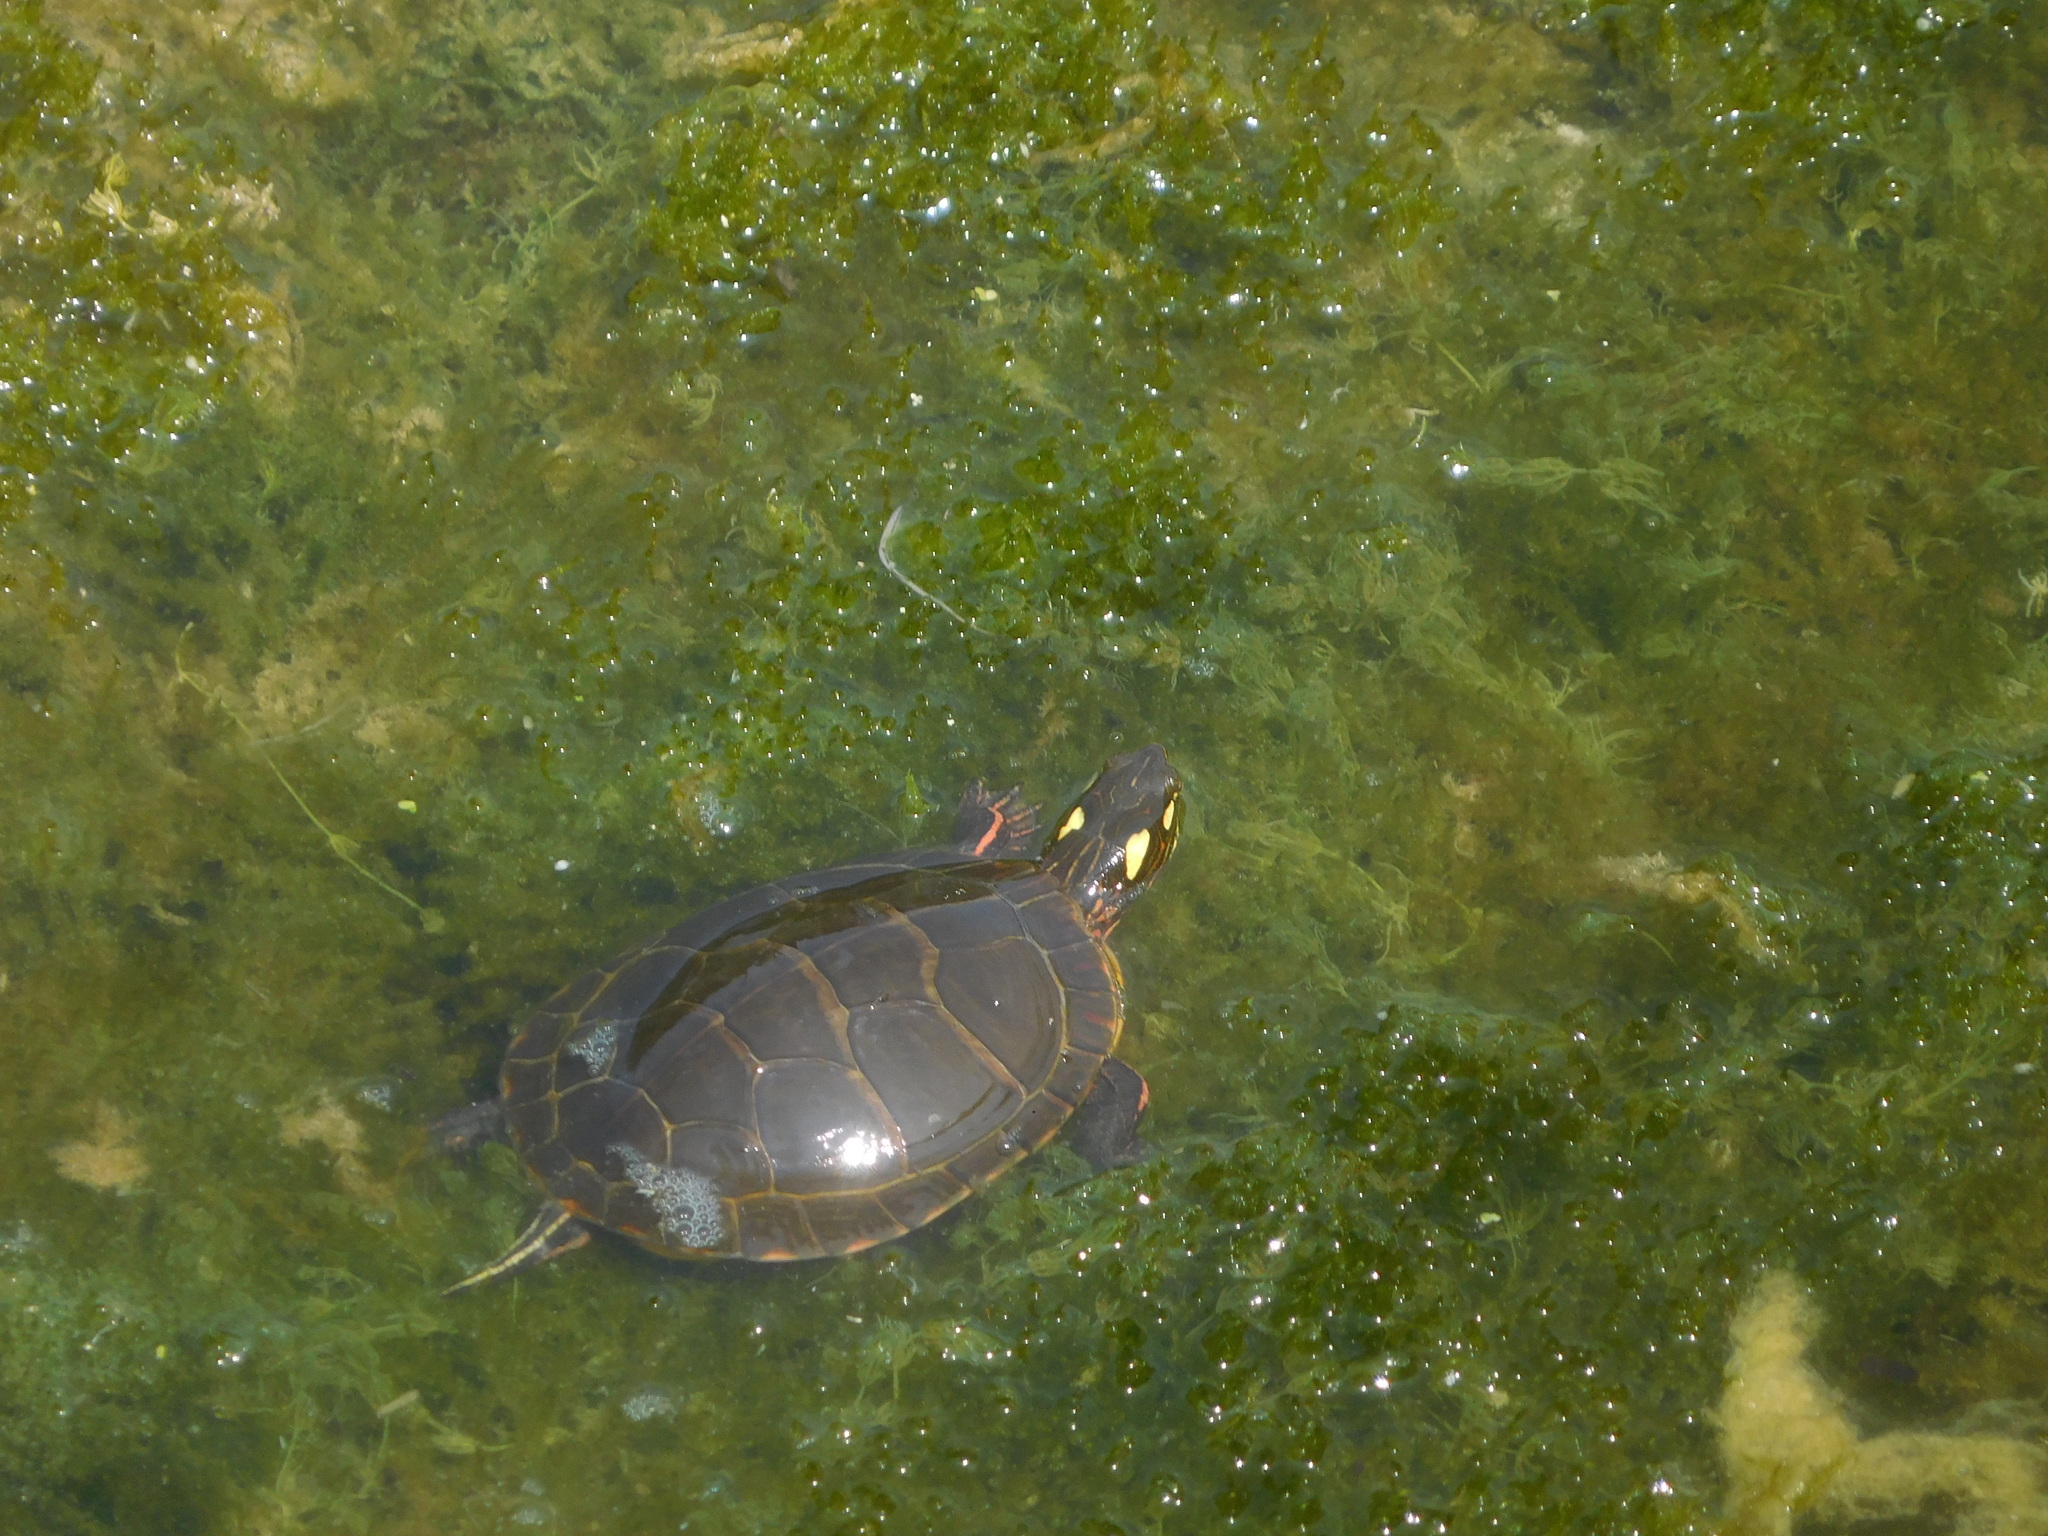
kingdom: Animalia
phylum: Chordata
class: Testudines
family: Emydidae
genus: Chrysemys
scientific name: Chrysemys picta
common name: Painted turtle
